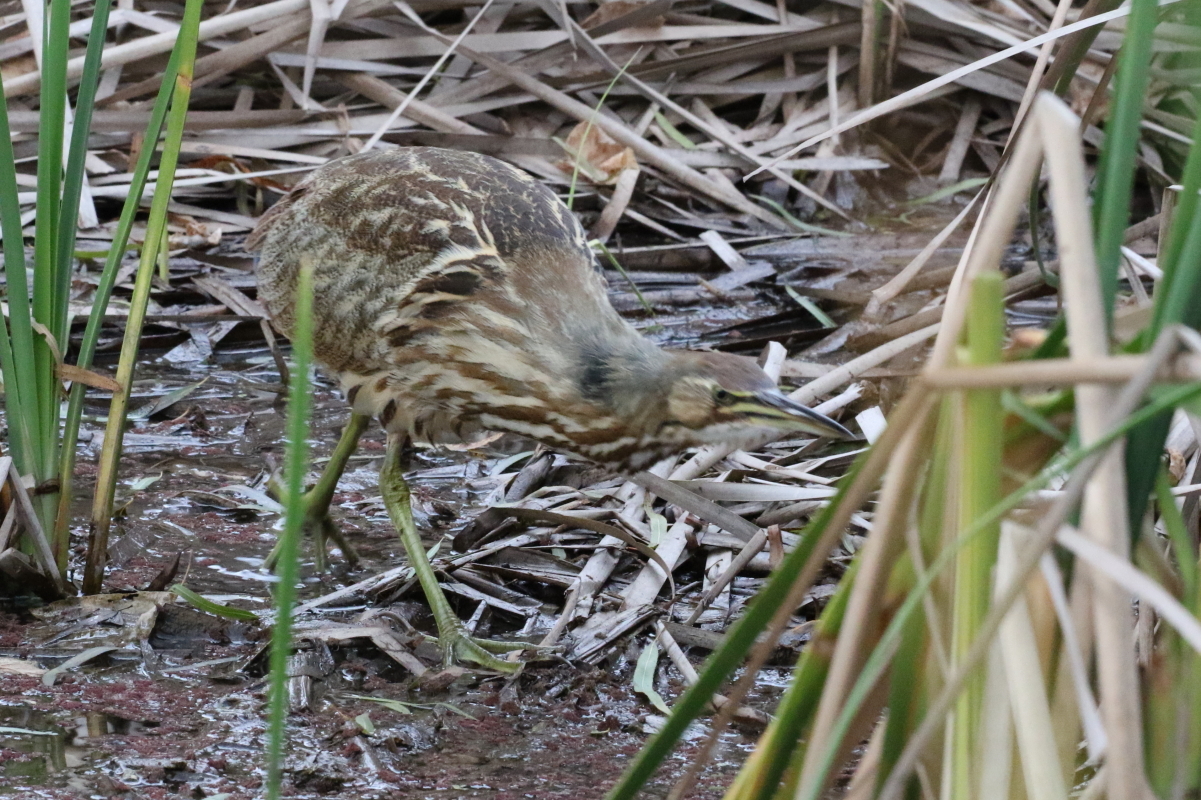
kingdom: Animalia
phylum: Chordata
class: Aves
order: Pelecaniformes
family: Ardeidae
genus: Botaurus
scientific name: Botaurus lentiginosus
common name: American bittern
